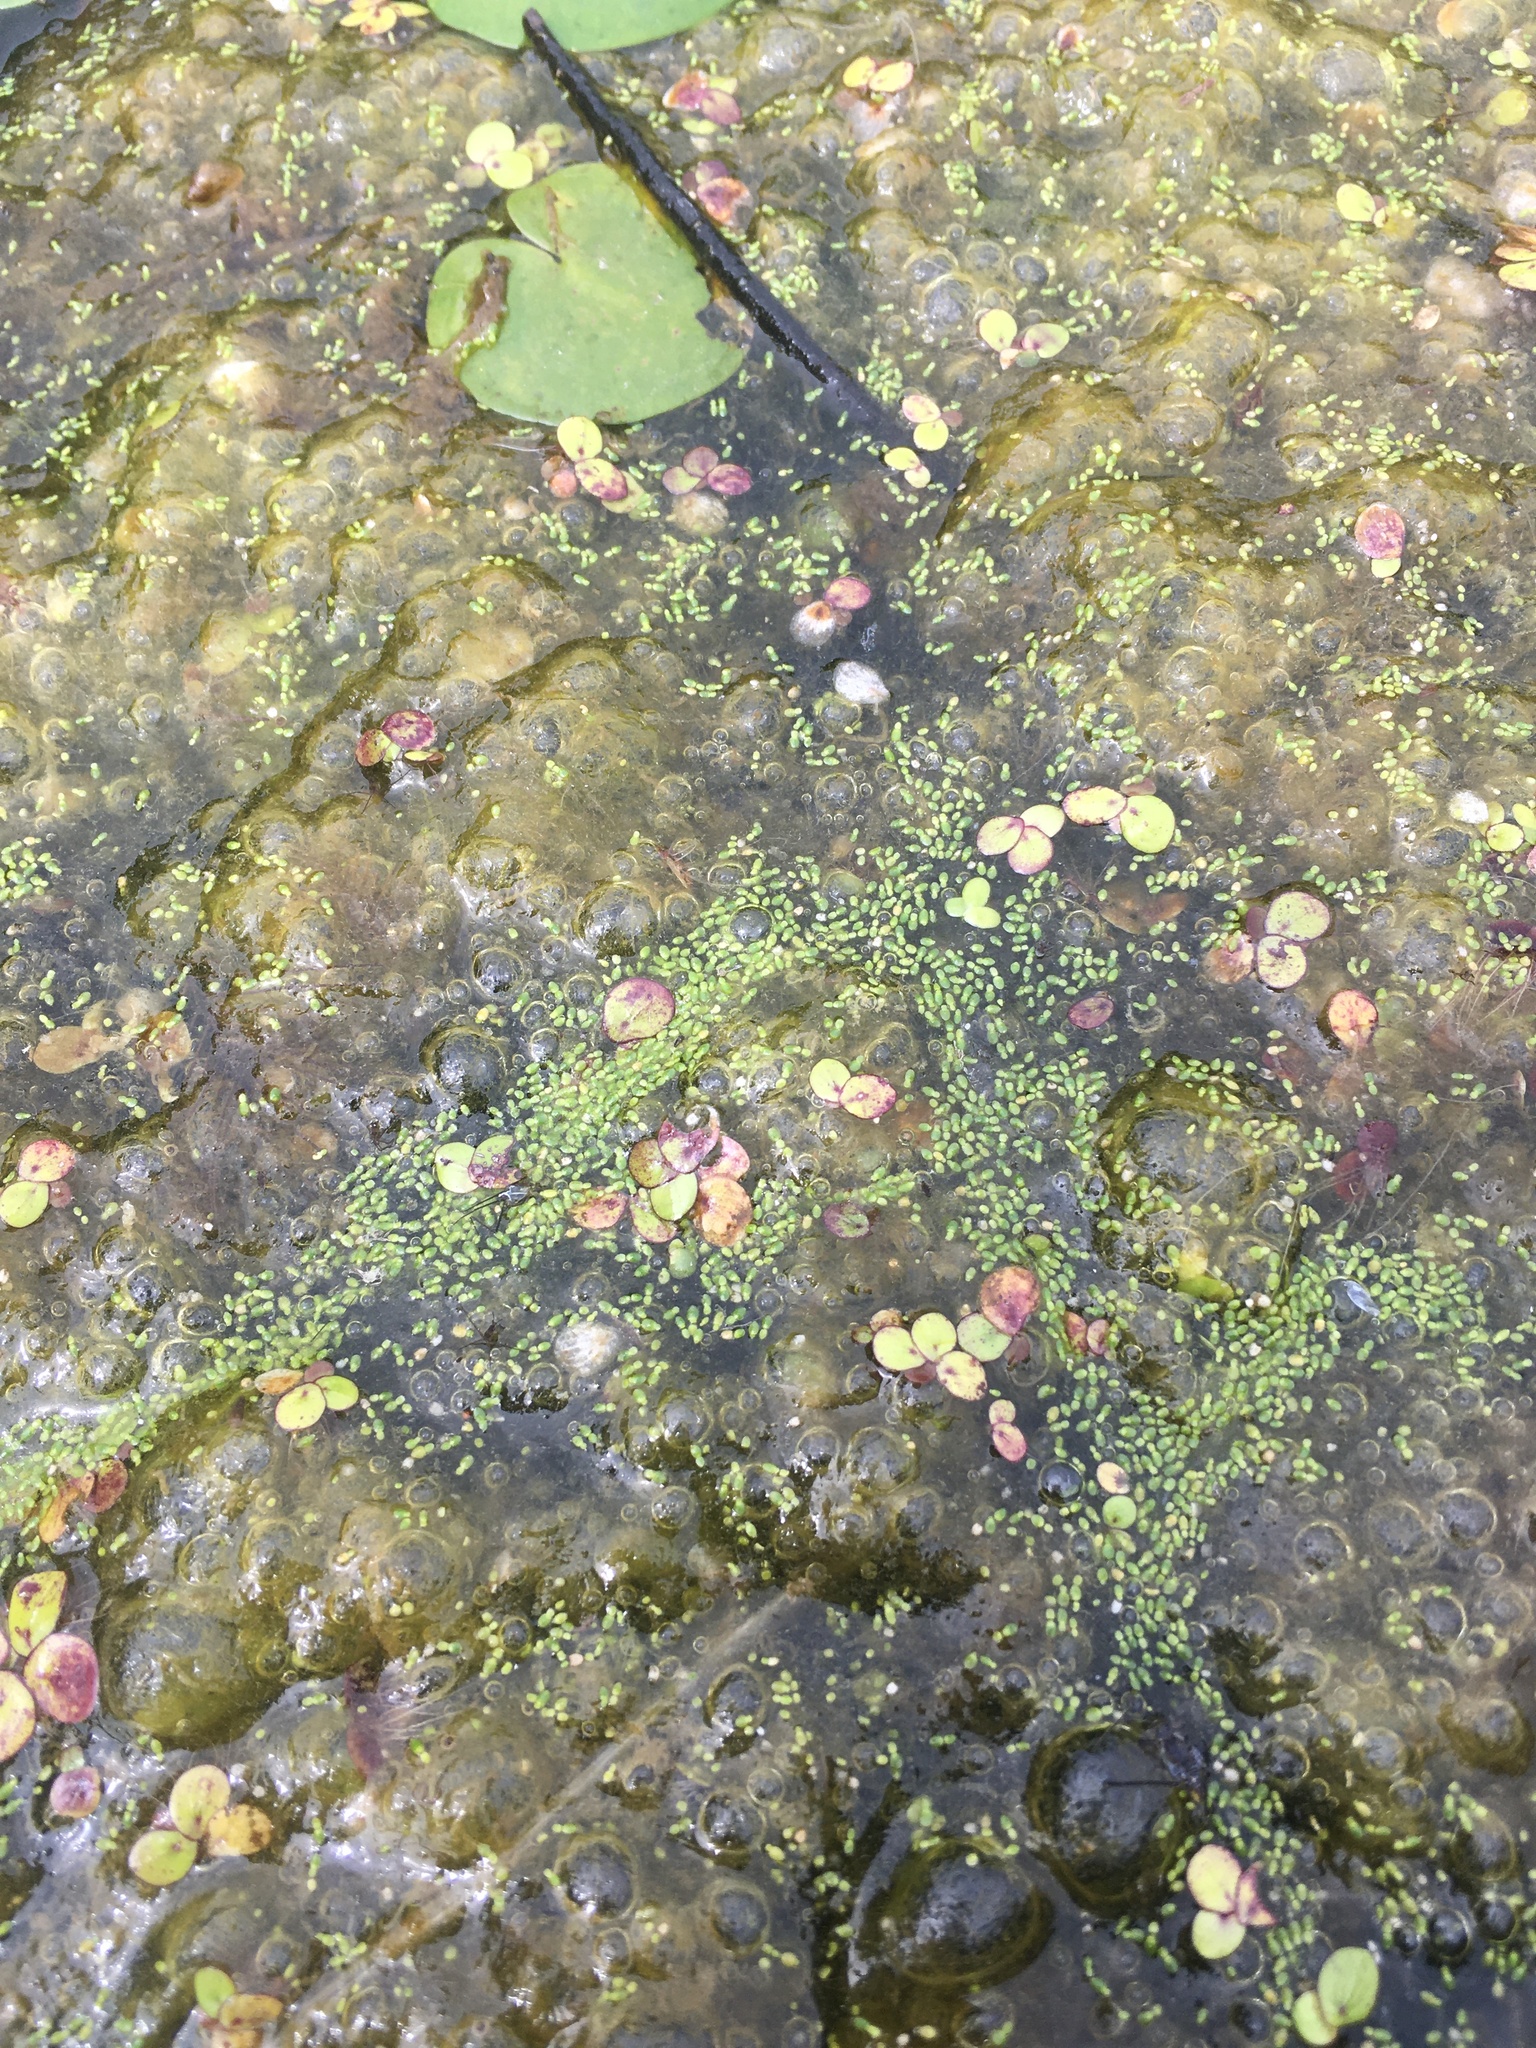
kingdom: Plantae
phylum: Tracheophyta
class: Liliopsida
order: Alismatales
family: Araceae
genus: Spirodela
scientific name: Spirodela polyrhiza
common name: Great duckweed
